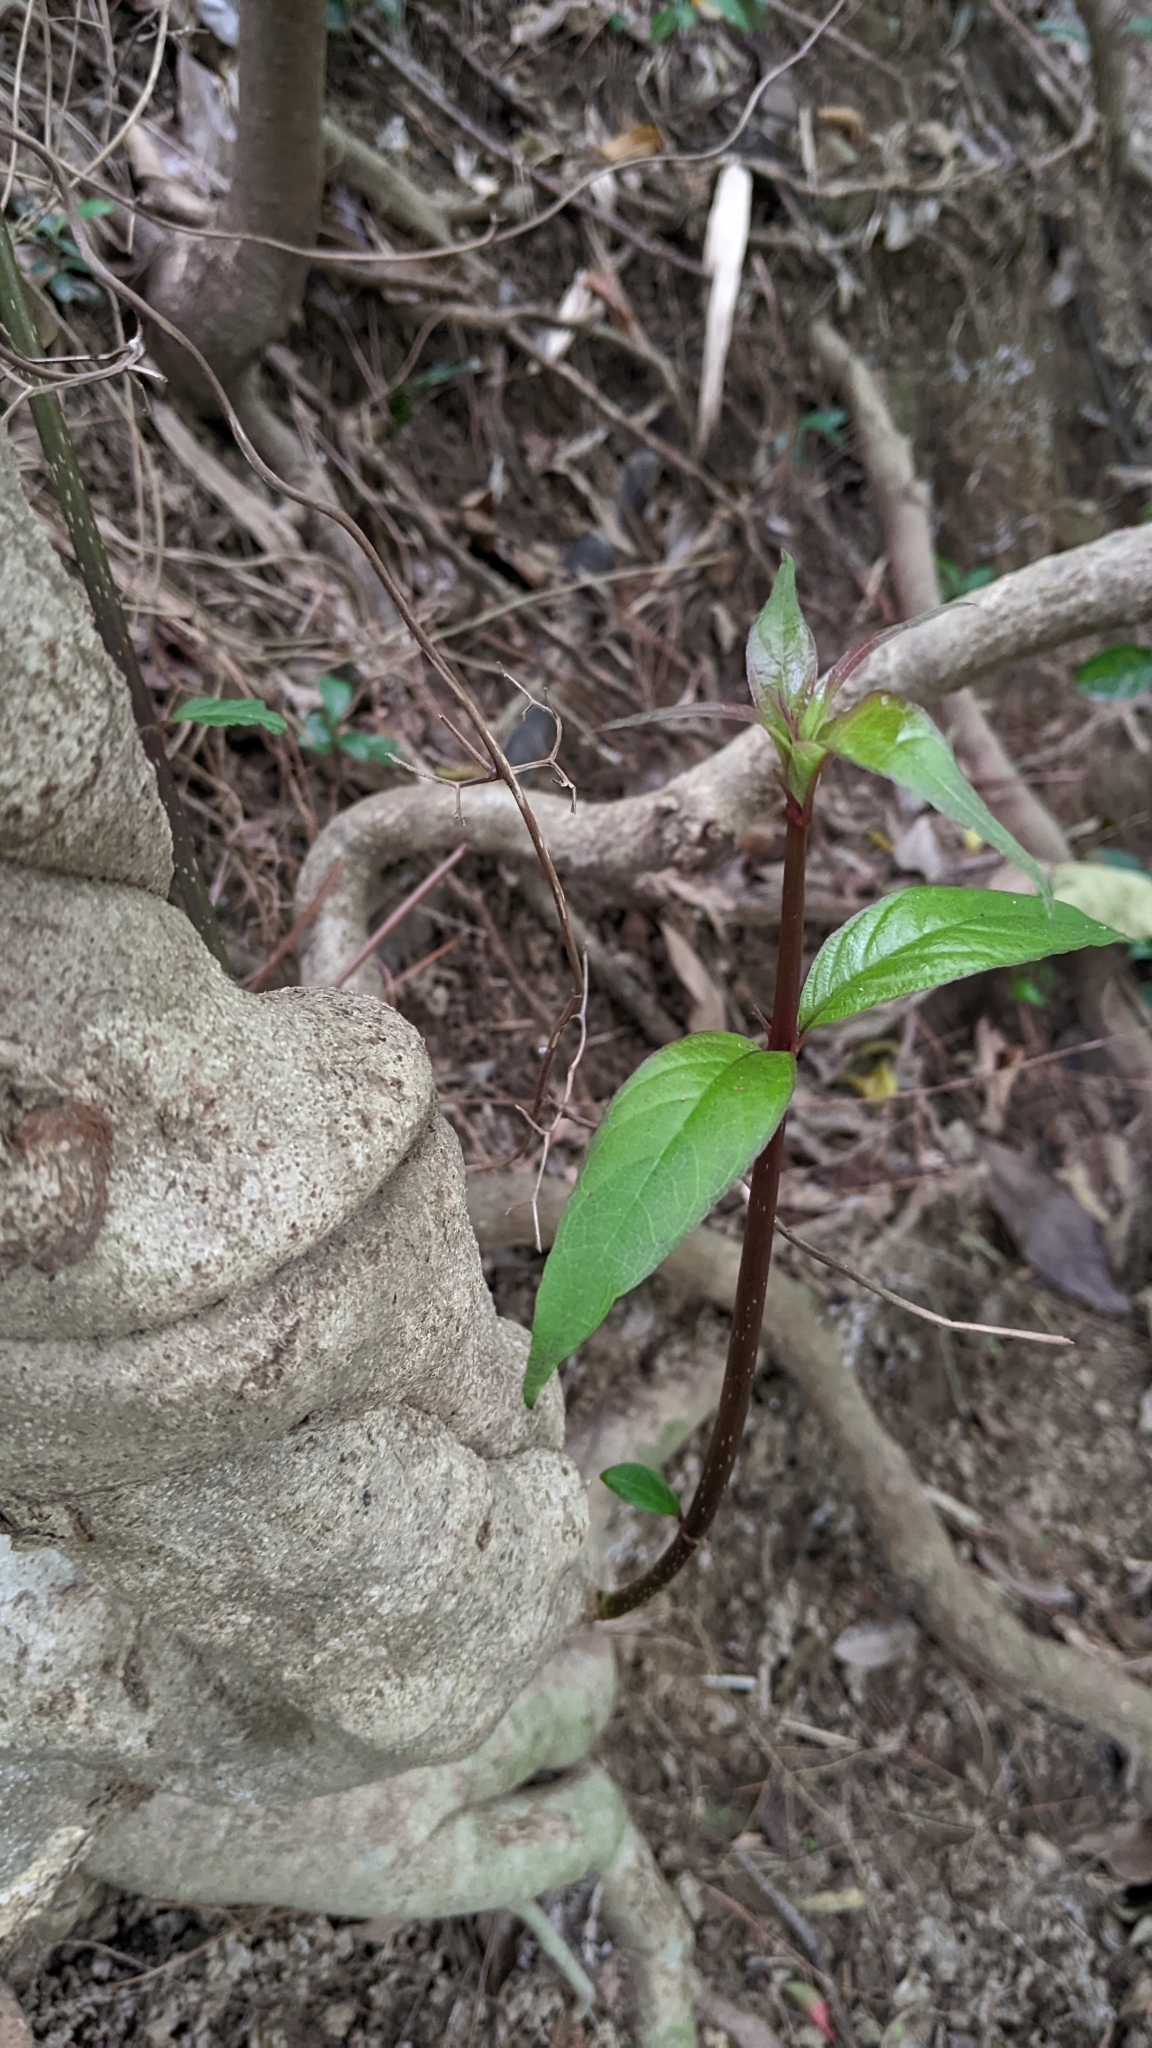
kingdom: Plantae
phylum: Tracheophyta
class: Magnoliopsida
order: Gentianales
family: Rubiaceae
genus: Mussaenda
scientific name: Mussaenda parviflora
